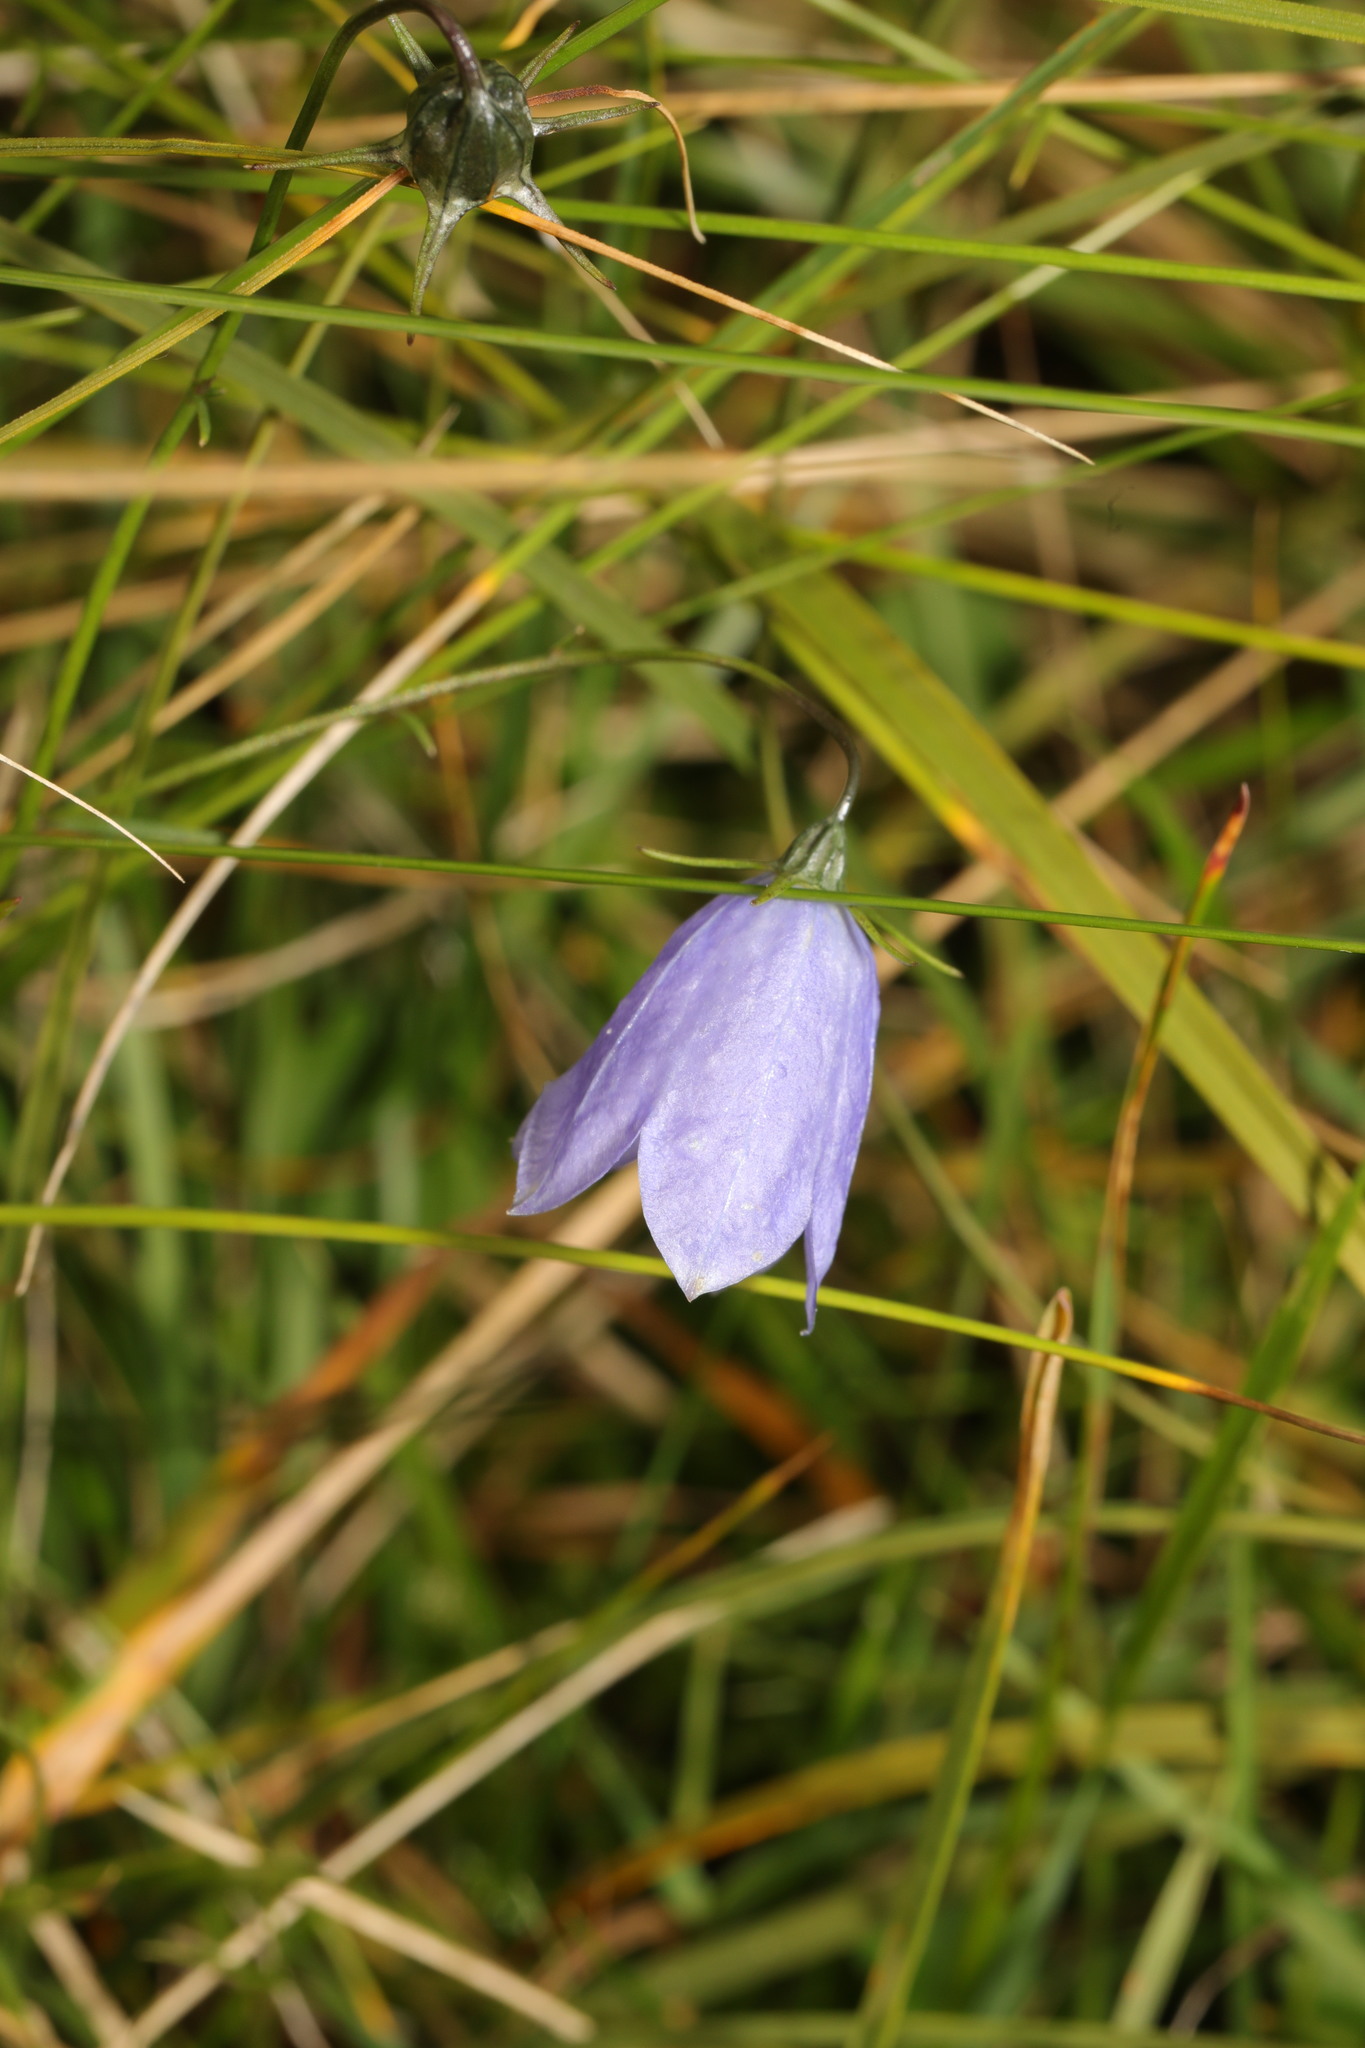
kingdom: Plantae
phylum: Tracheophyta
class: Magnoliopsida
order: Asterales
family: Campanulaceae
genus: Campanula
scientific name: Campanula rotundifolia
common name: Harebell
